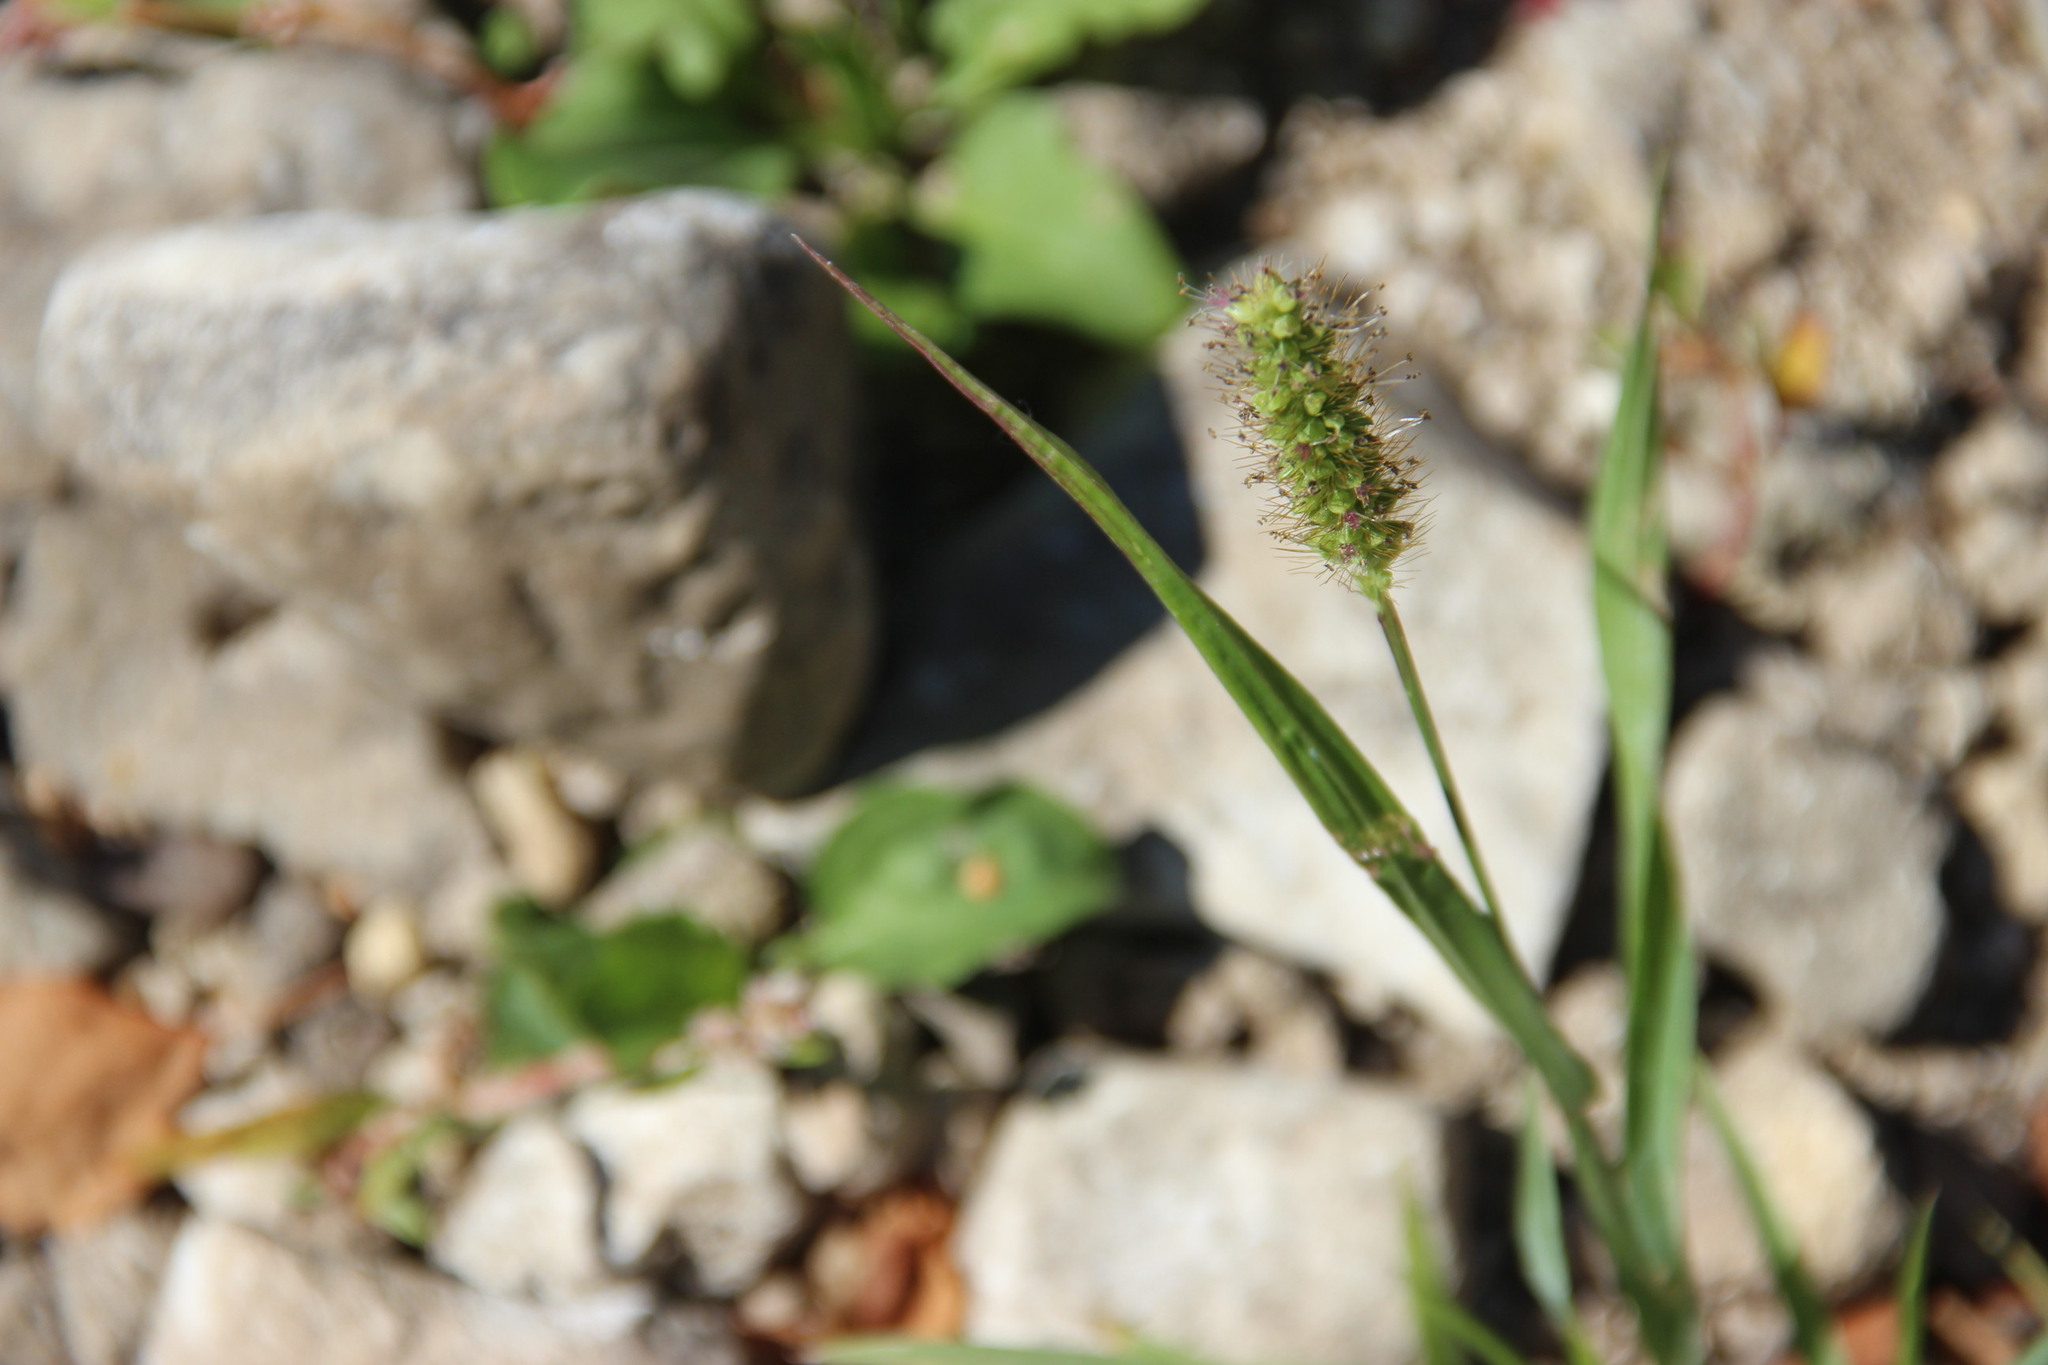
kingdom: Plantae
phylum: Tracheophyta
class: Liliopsida
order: Poales
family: Poaceae
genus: Setaria
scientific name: Setaria pumila
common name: Yellow bristle-grass
